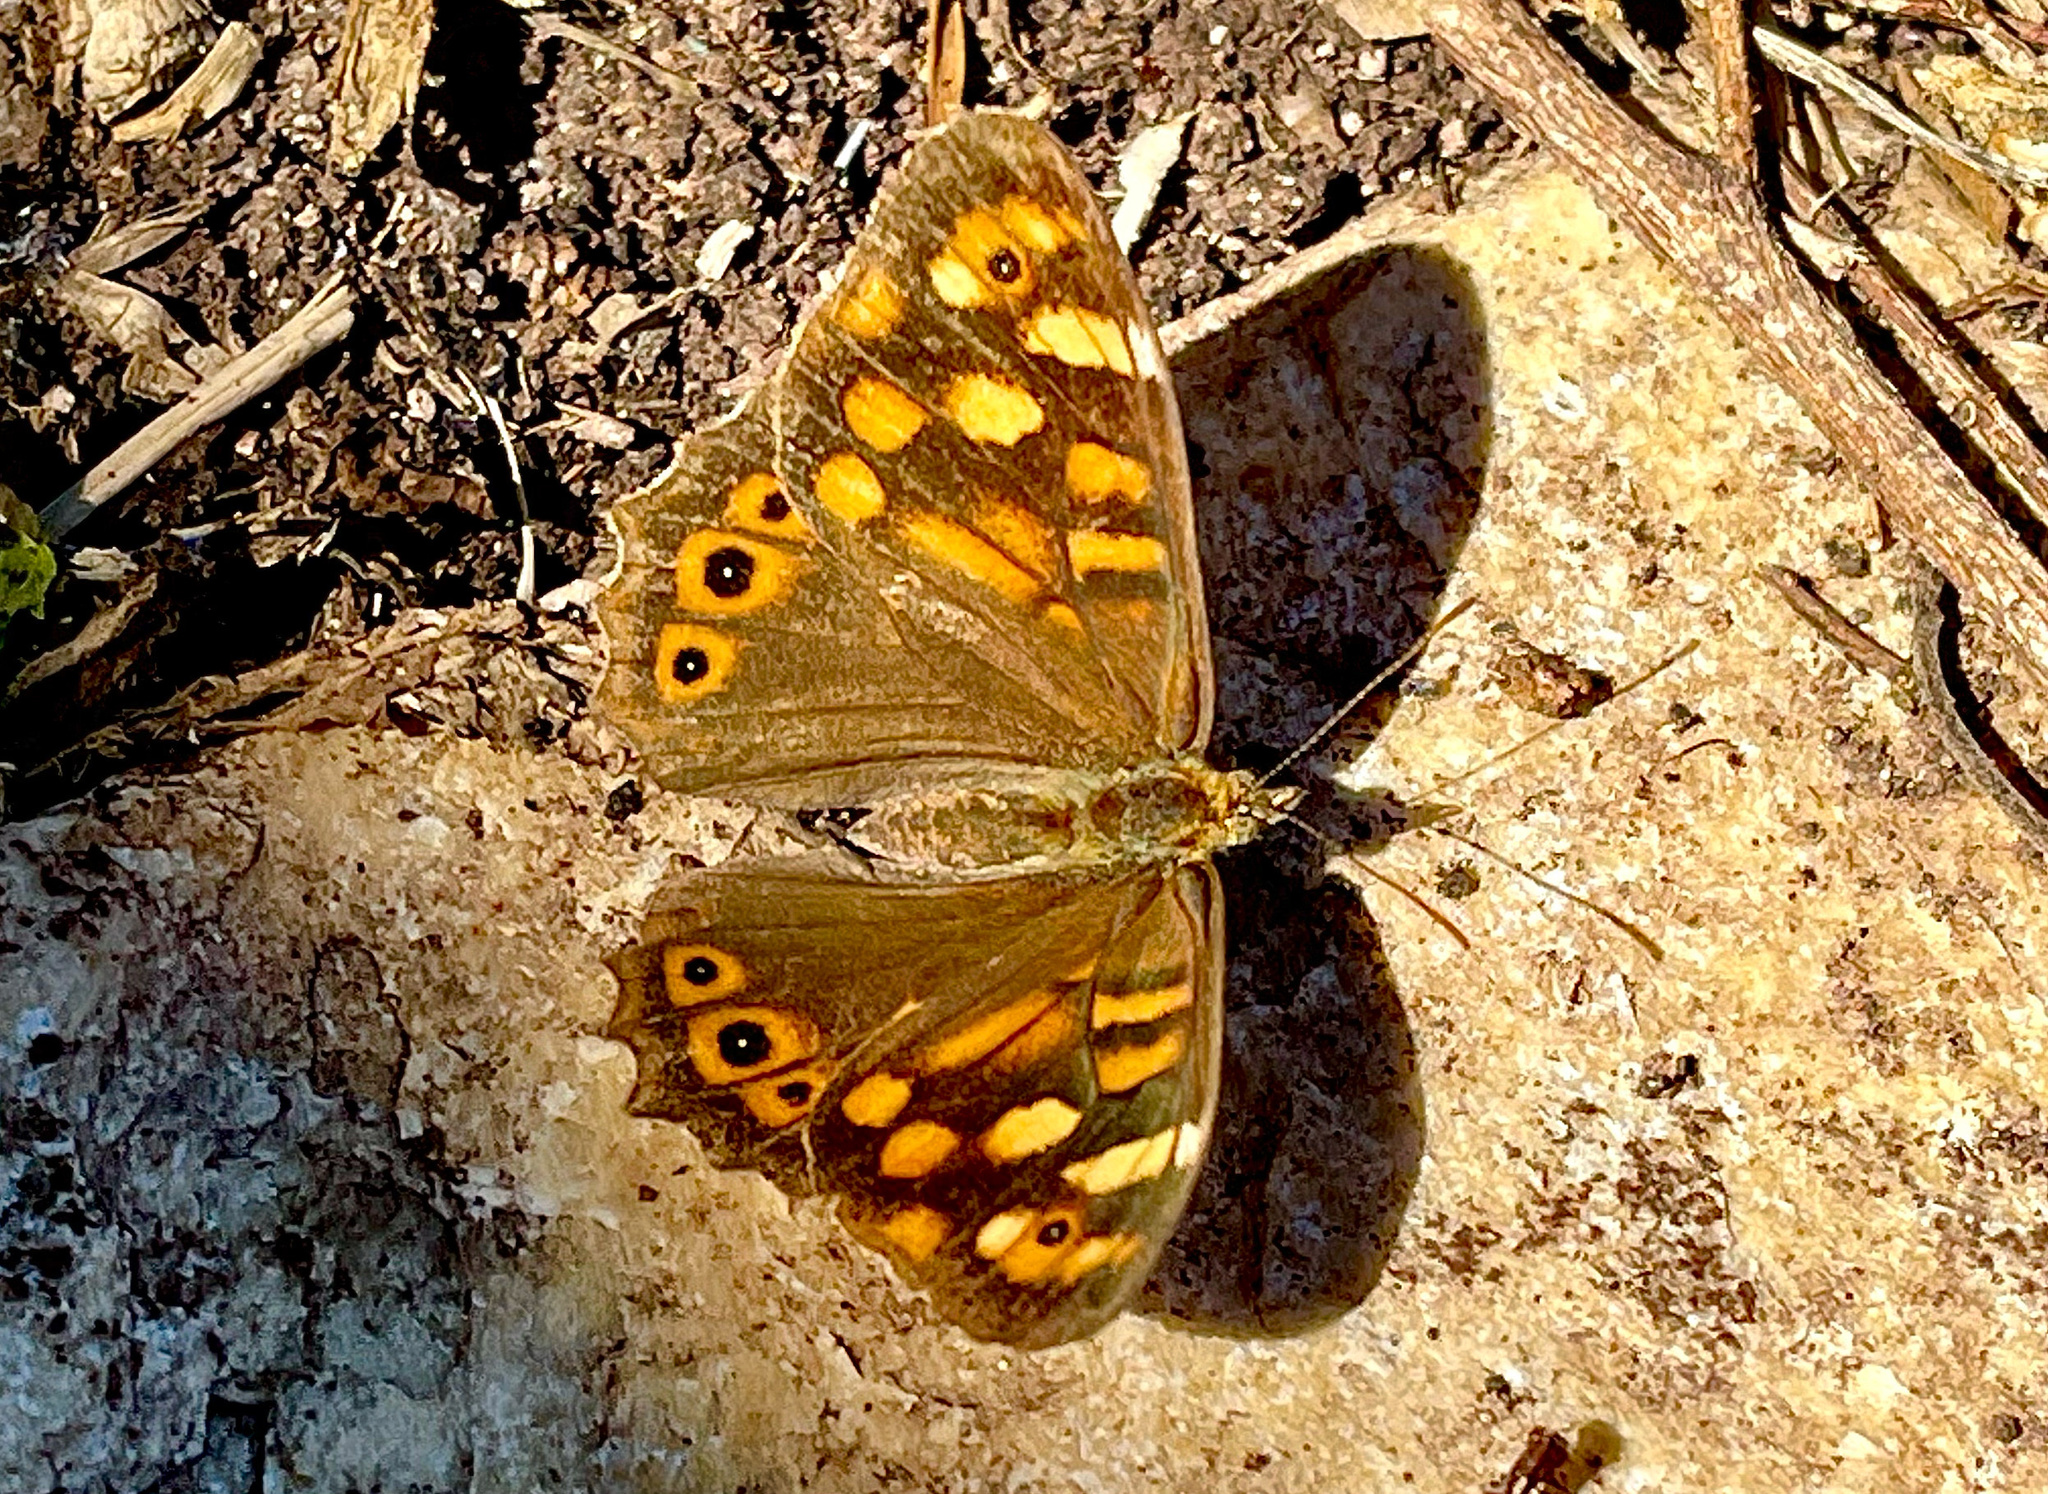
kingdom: Animalia
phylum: Arthropoda
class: Insecta
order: Lepidoptera
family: Nymphalidae
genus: Pararge
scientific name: Pararge aegeria
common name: Speckled wood
